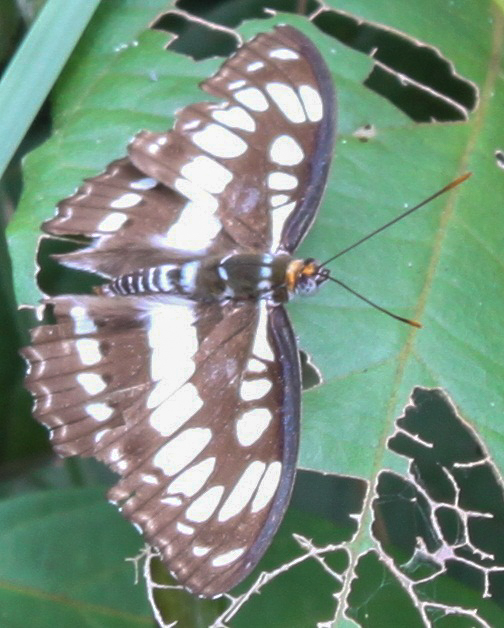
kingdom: Animalia
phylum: Arthropoda
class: Insecta
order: Lepidoptera
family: Nymphalidae
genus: Parathyma
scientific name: Parathyma perius
